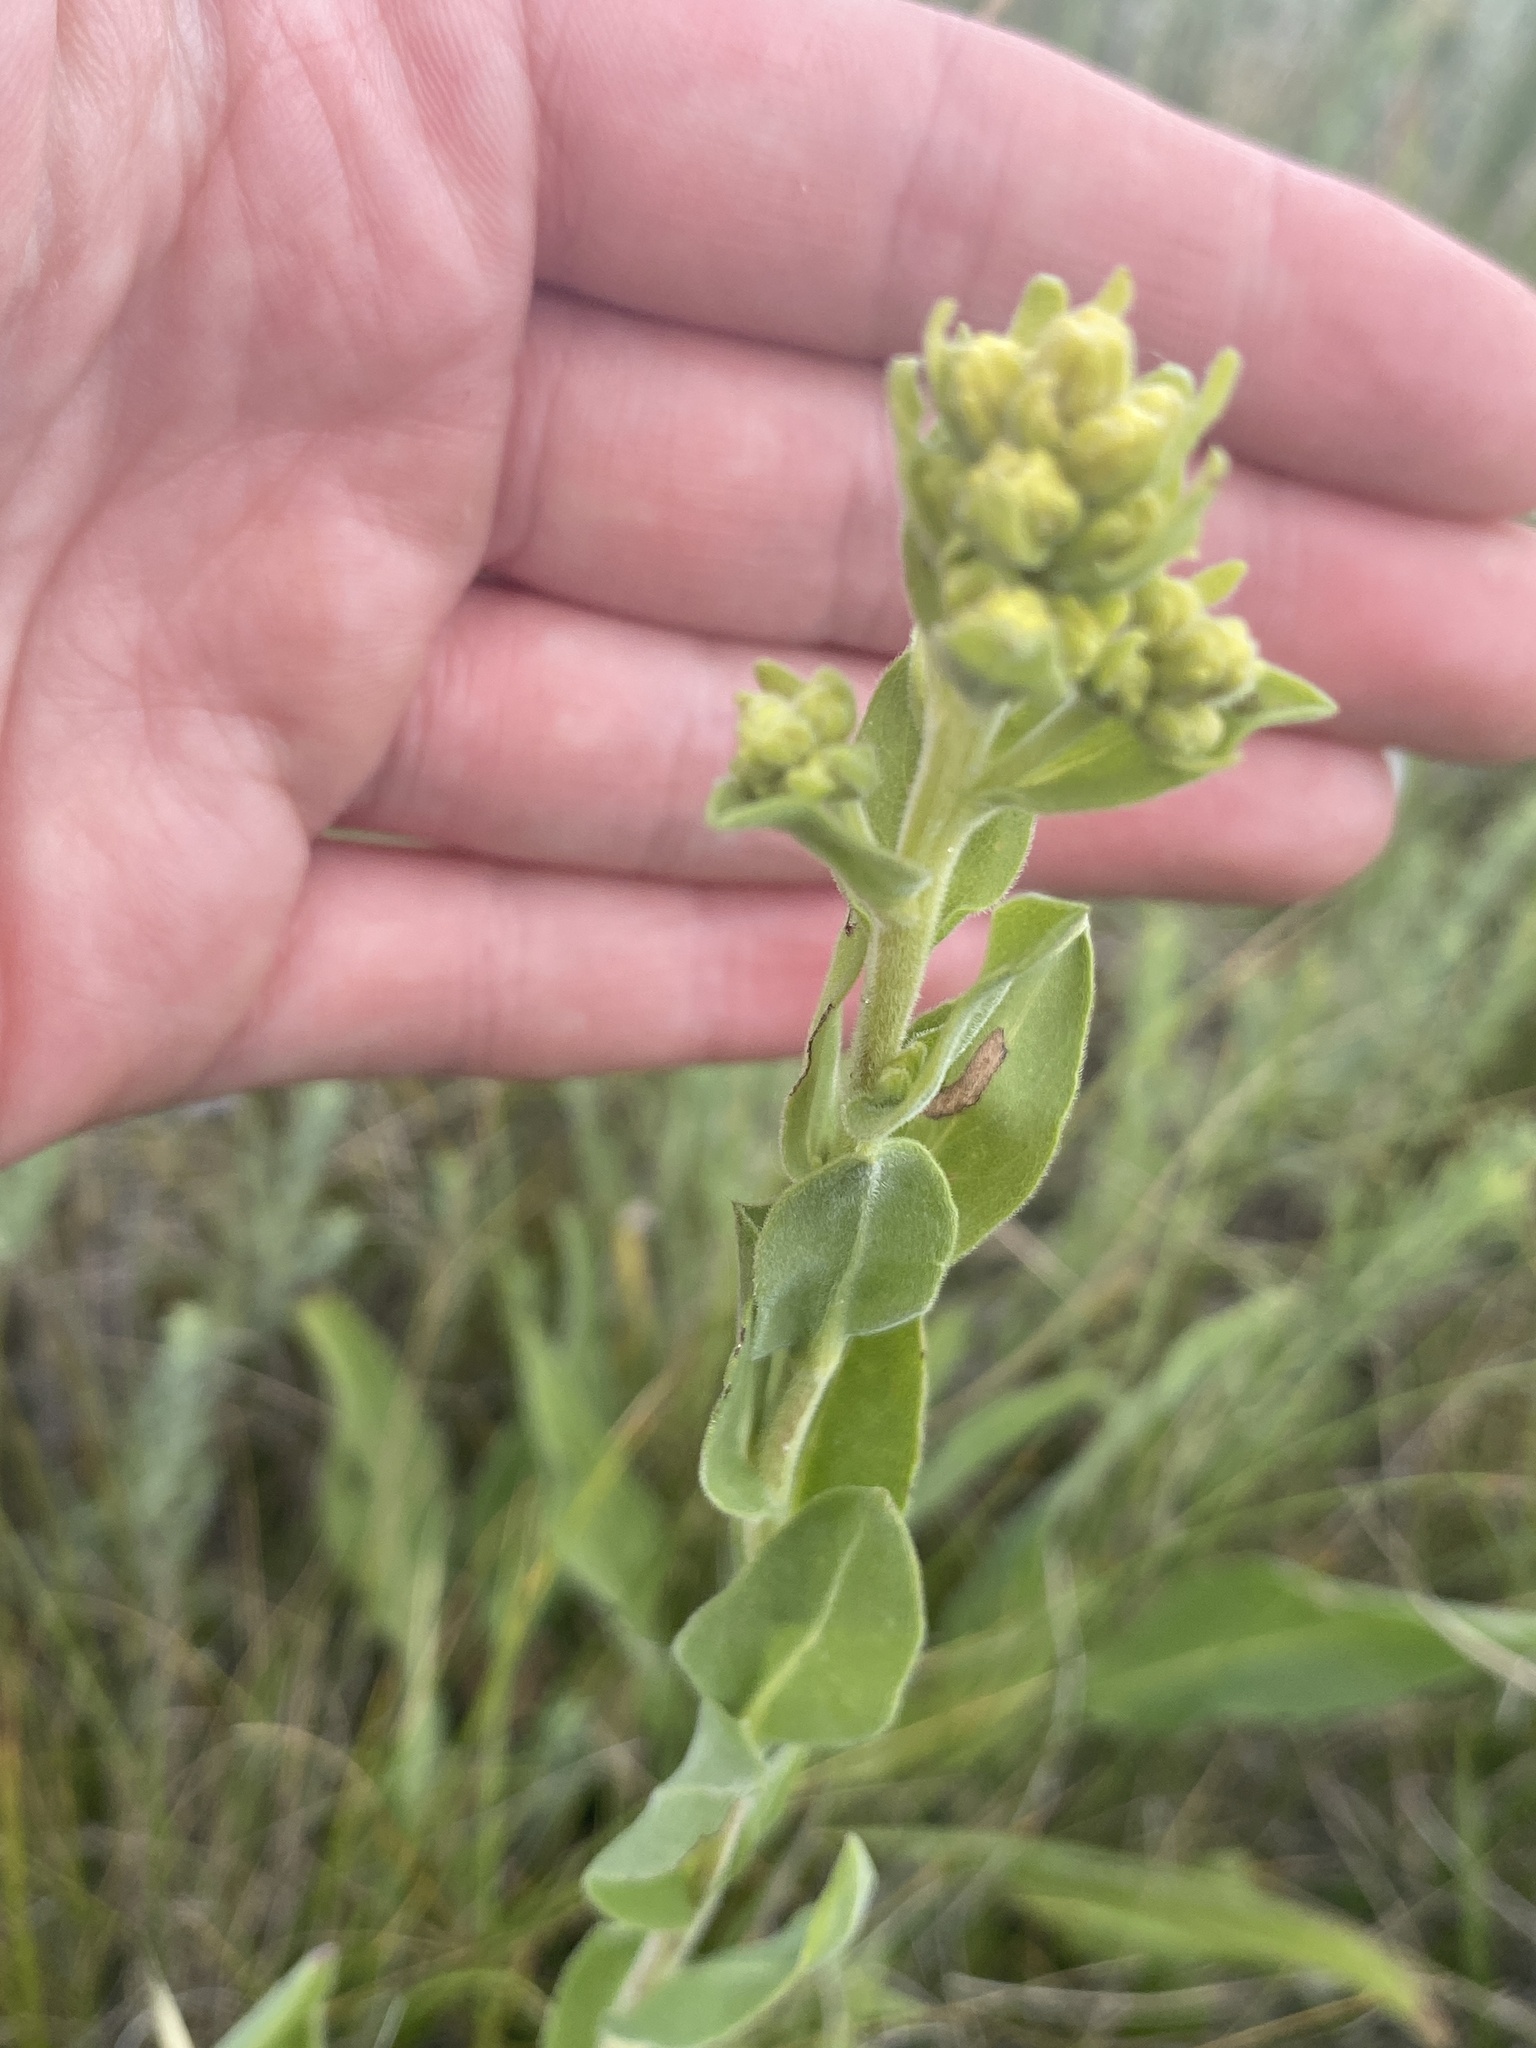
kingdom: Plantae
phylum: Tracheophyta
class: Magnoliopsida
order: Asterales
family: Asteraceae
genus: Solidago
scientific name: Solidago rigida
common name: Rigid goldenrod
